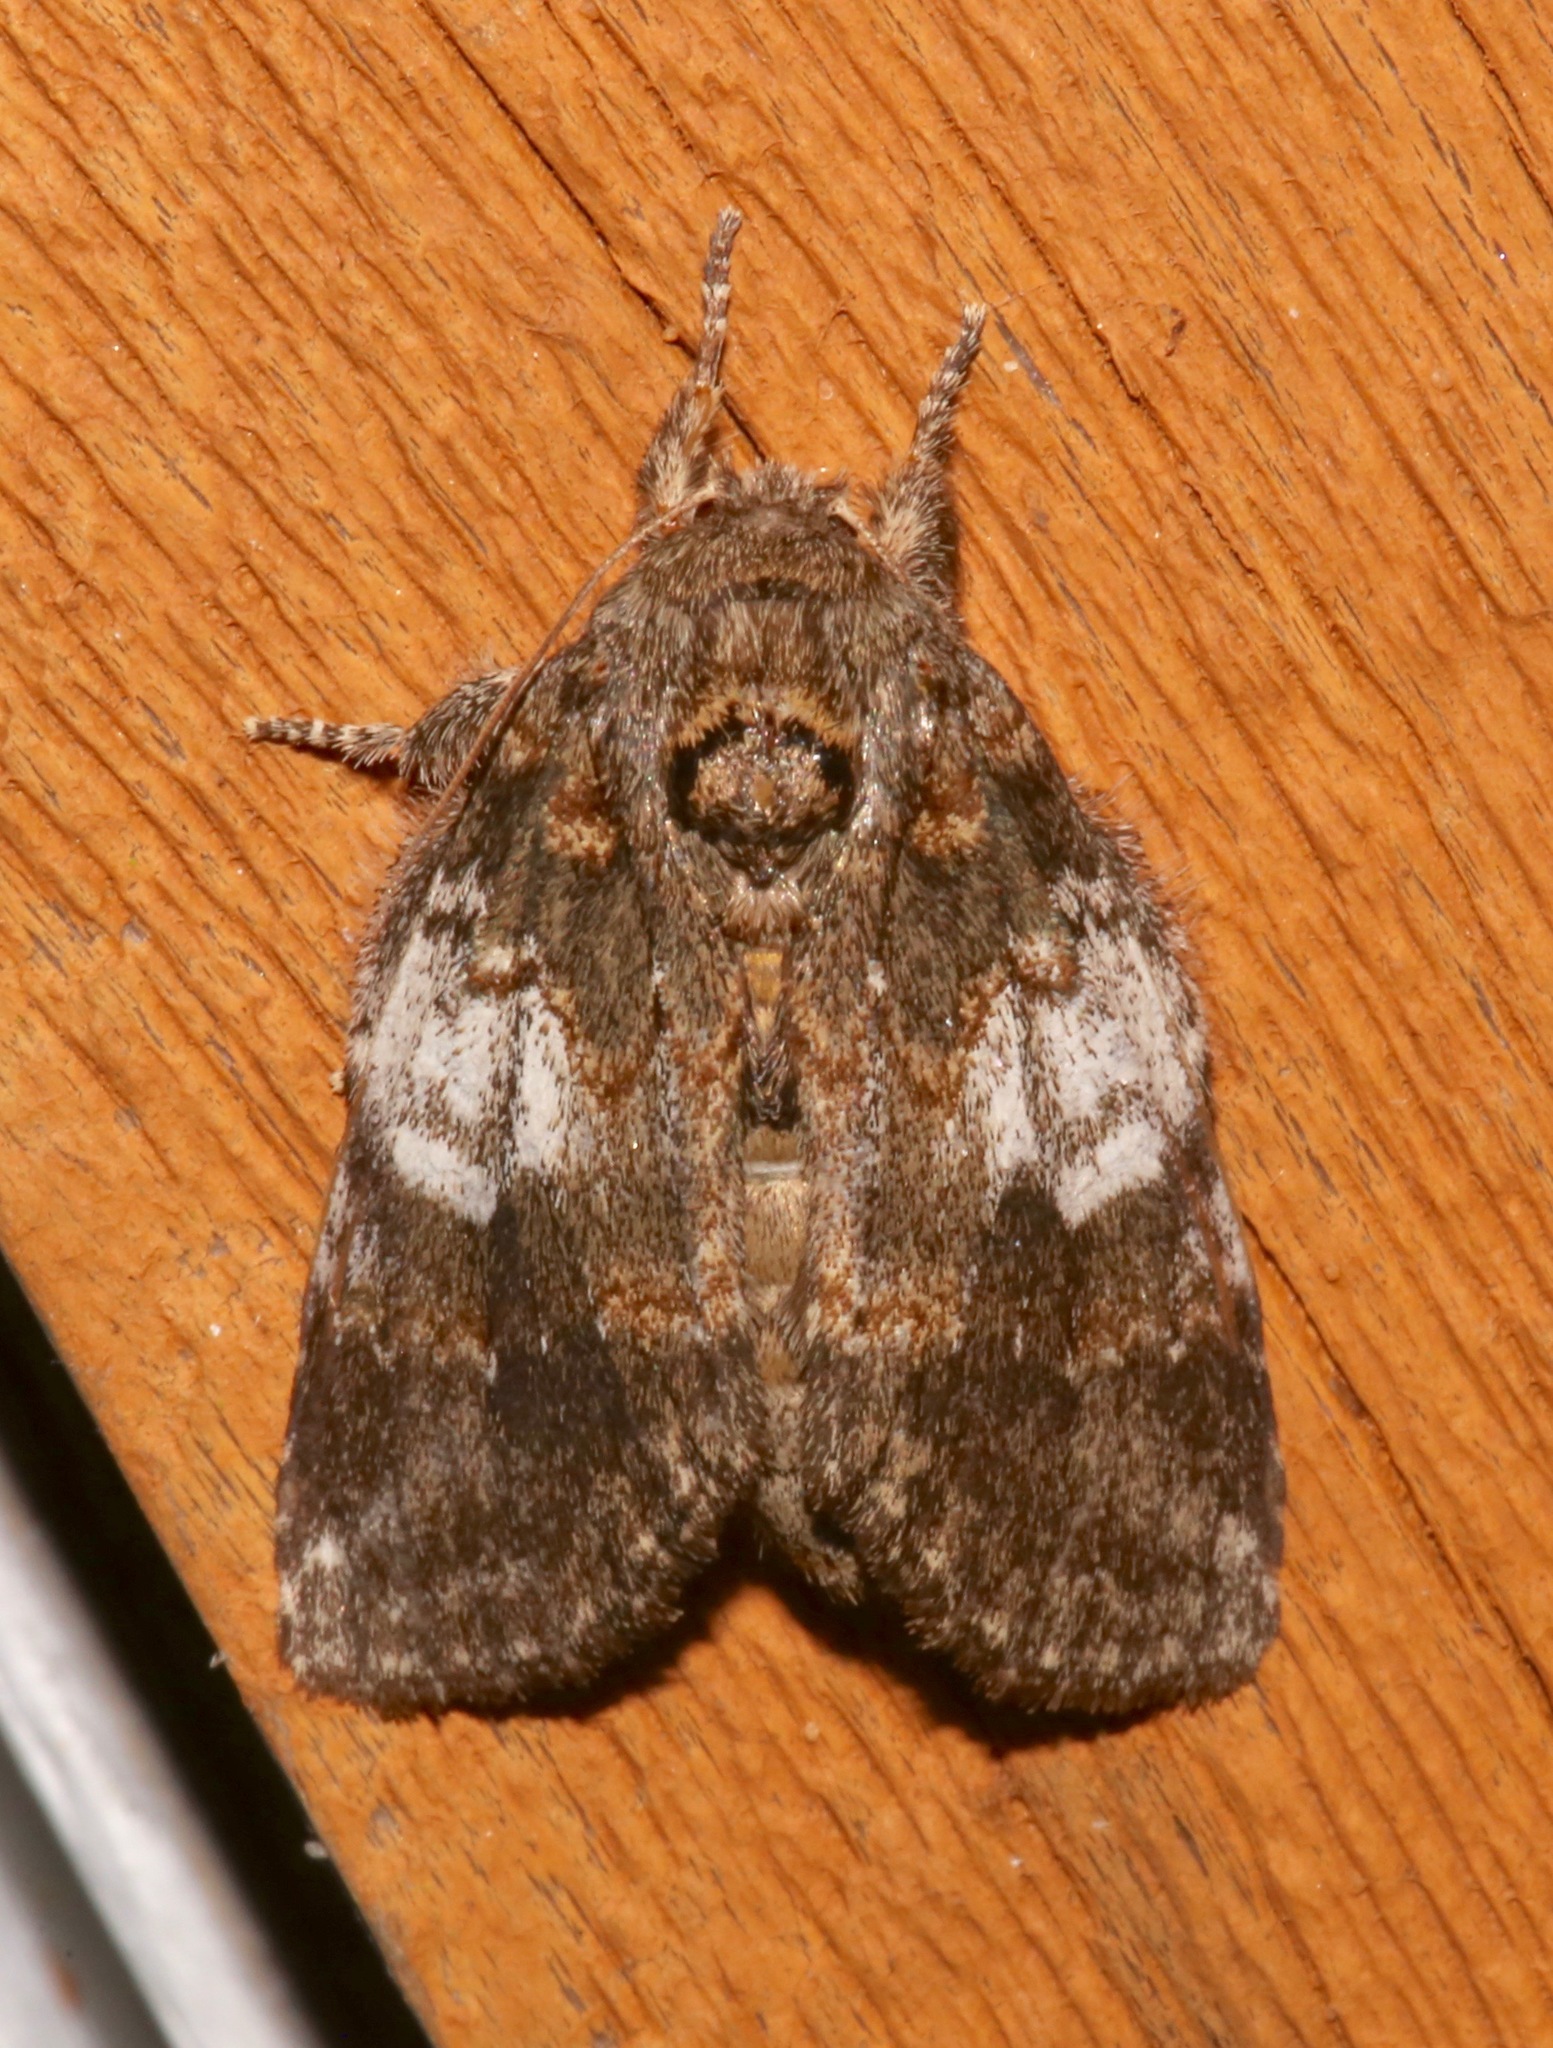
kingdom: Animalia
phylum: Arthropoda
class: Insecta
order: Lepidoptera
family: Notodontidae
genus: Peridea
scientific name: Peridea angulosa
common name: Angulose prominent
